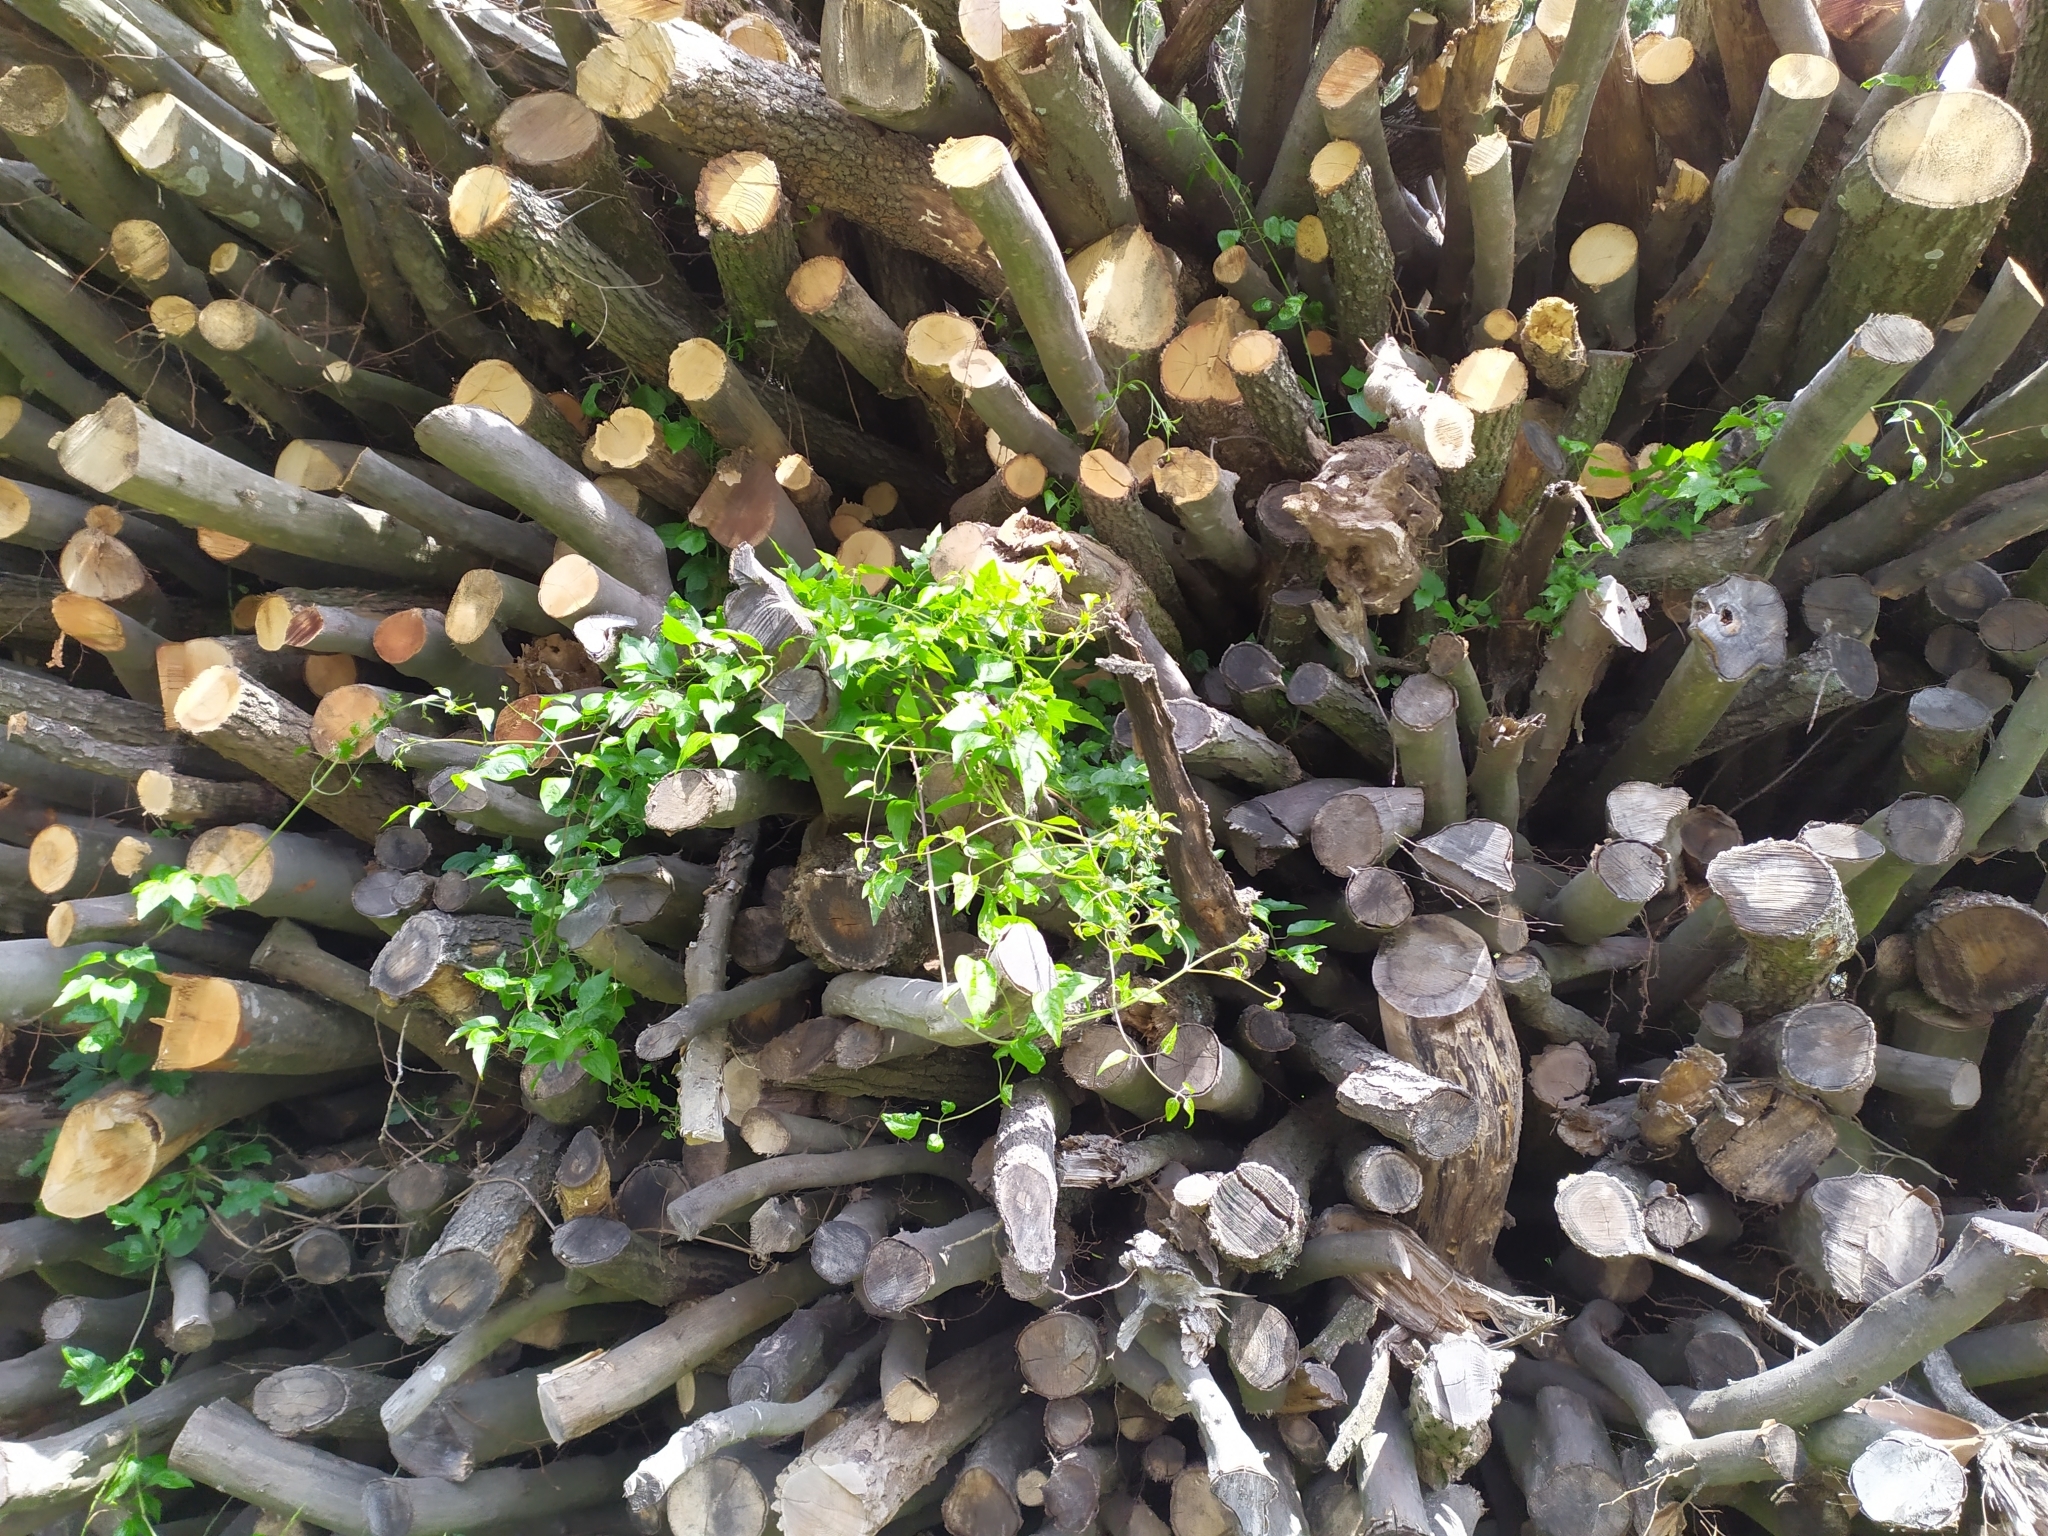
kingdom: Plantae
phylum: Tracheophyta
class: Magnoliopsida
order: Ranunculales
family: Ranunculaceae
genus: Clematis
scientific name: Clematis vitalba
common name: Evergreen clematis
